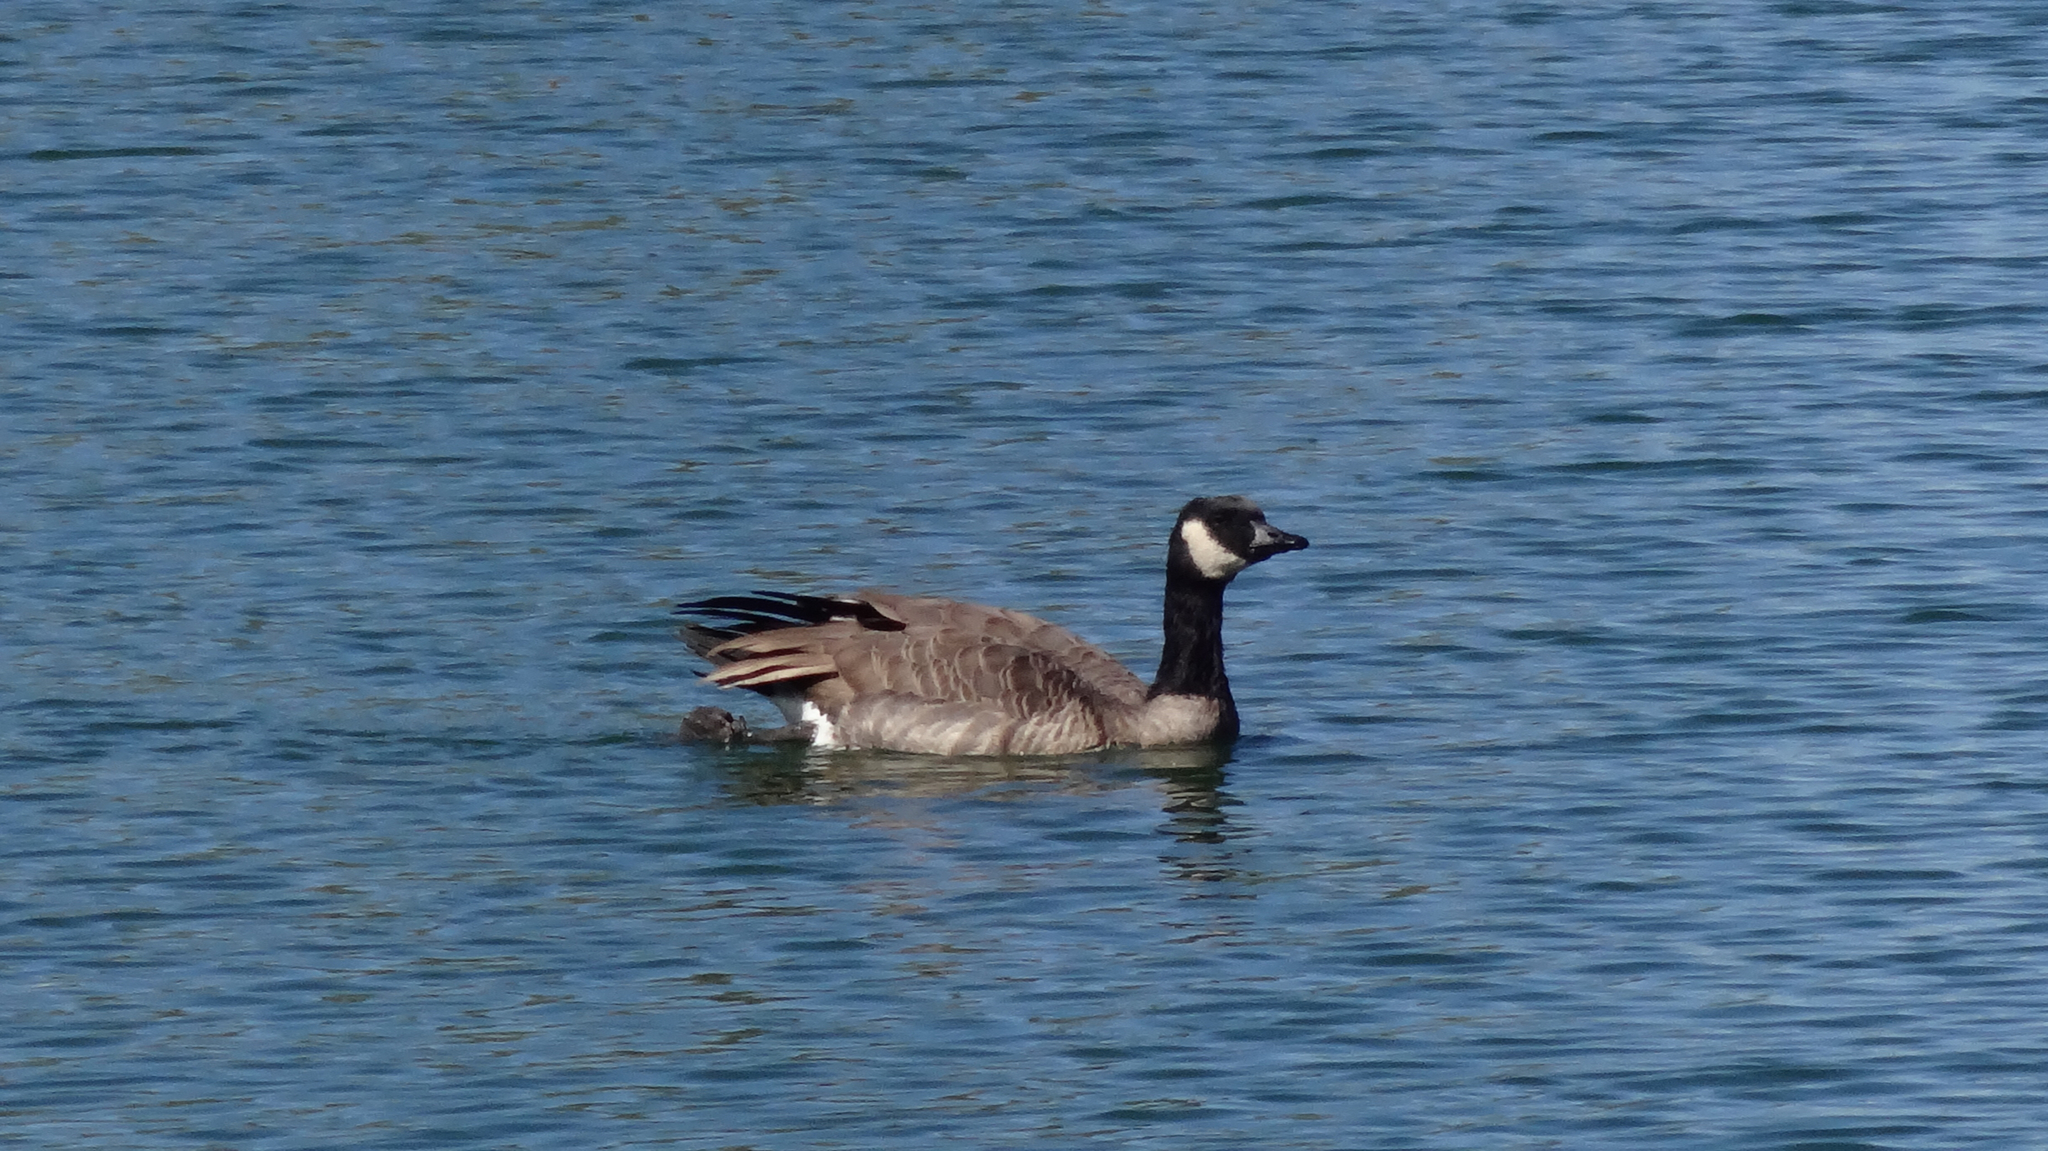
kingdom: Animalia
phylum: Chordata
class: Aves
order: Anseriformes
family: Anatidae
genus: Branta
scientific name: Branta canadensis
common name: Canada goose
